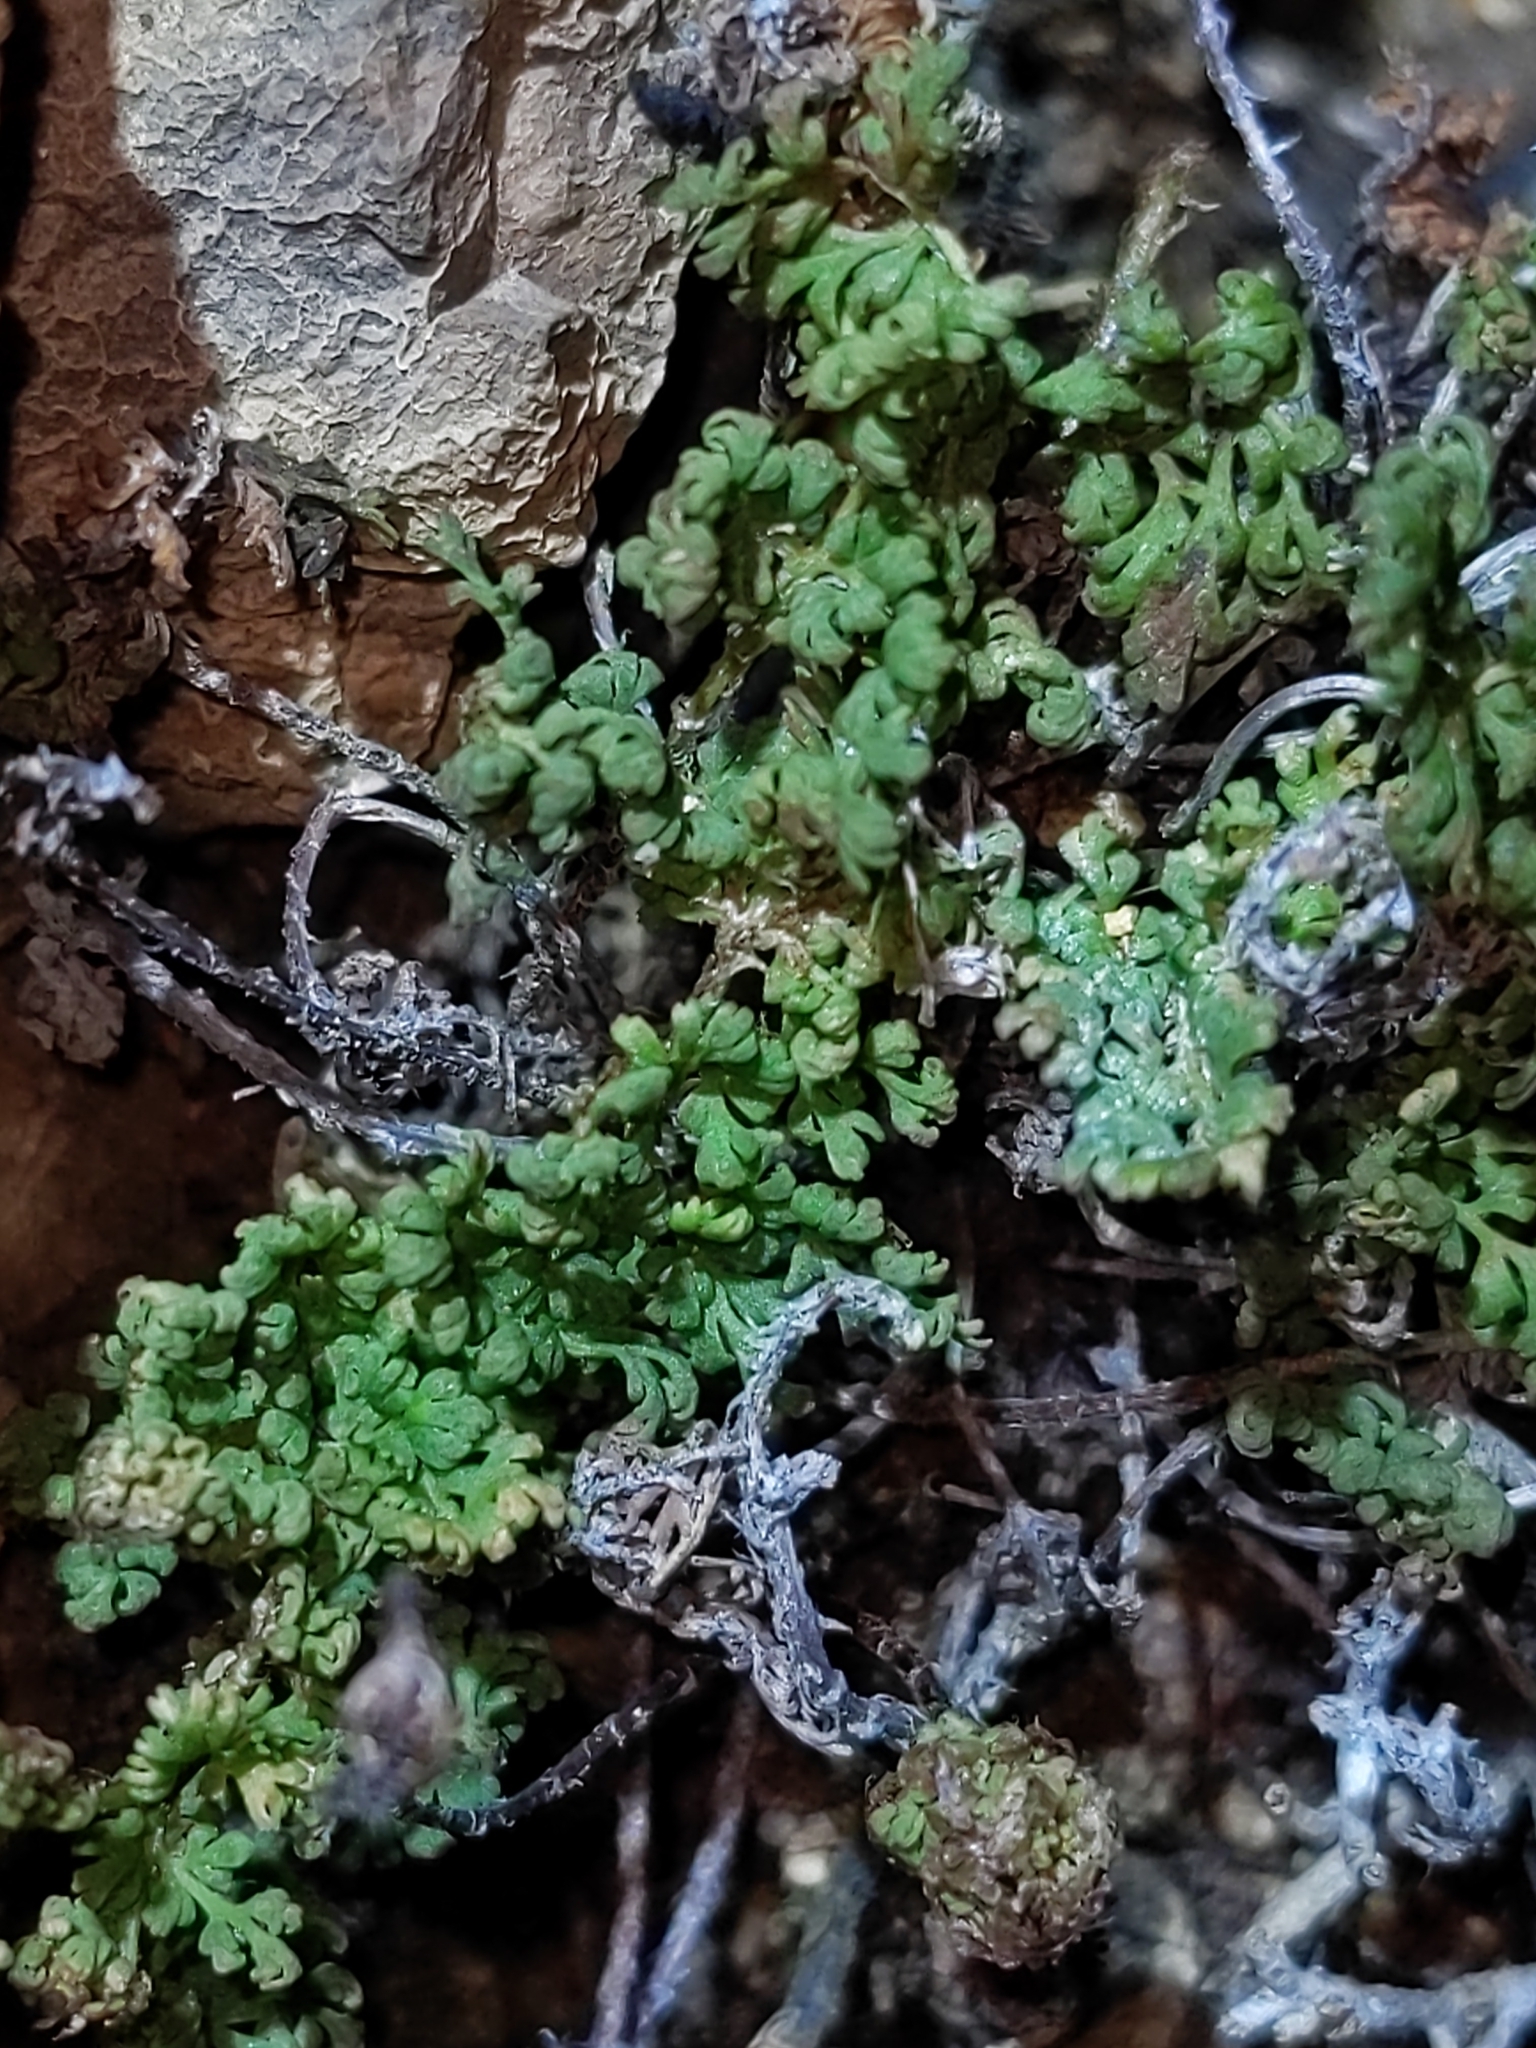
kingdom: Plantae
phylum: Tracheophyta
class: Polypodiopsida
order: Polypodiales
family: Pteridaceae
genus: Myriopteris
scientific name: Myriopteris pringlei
